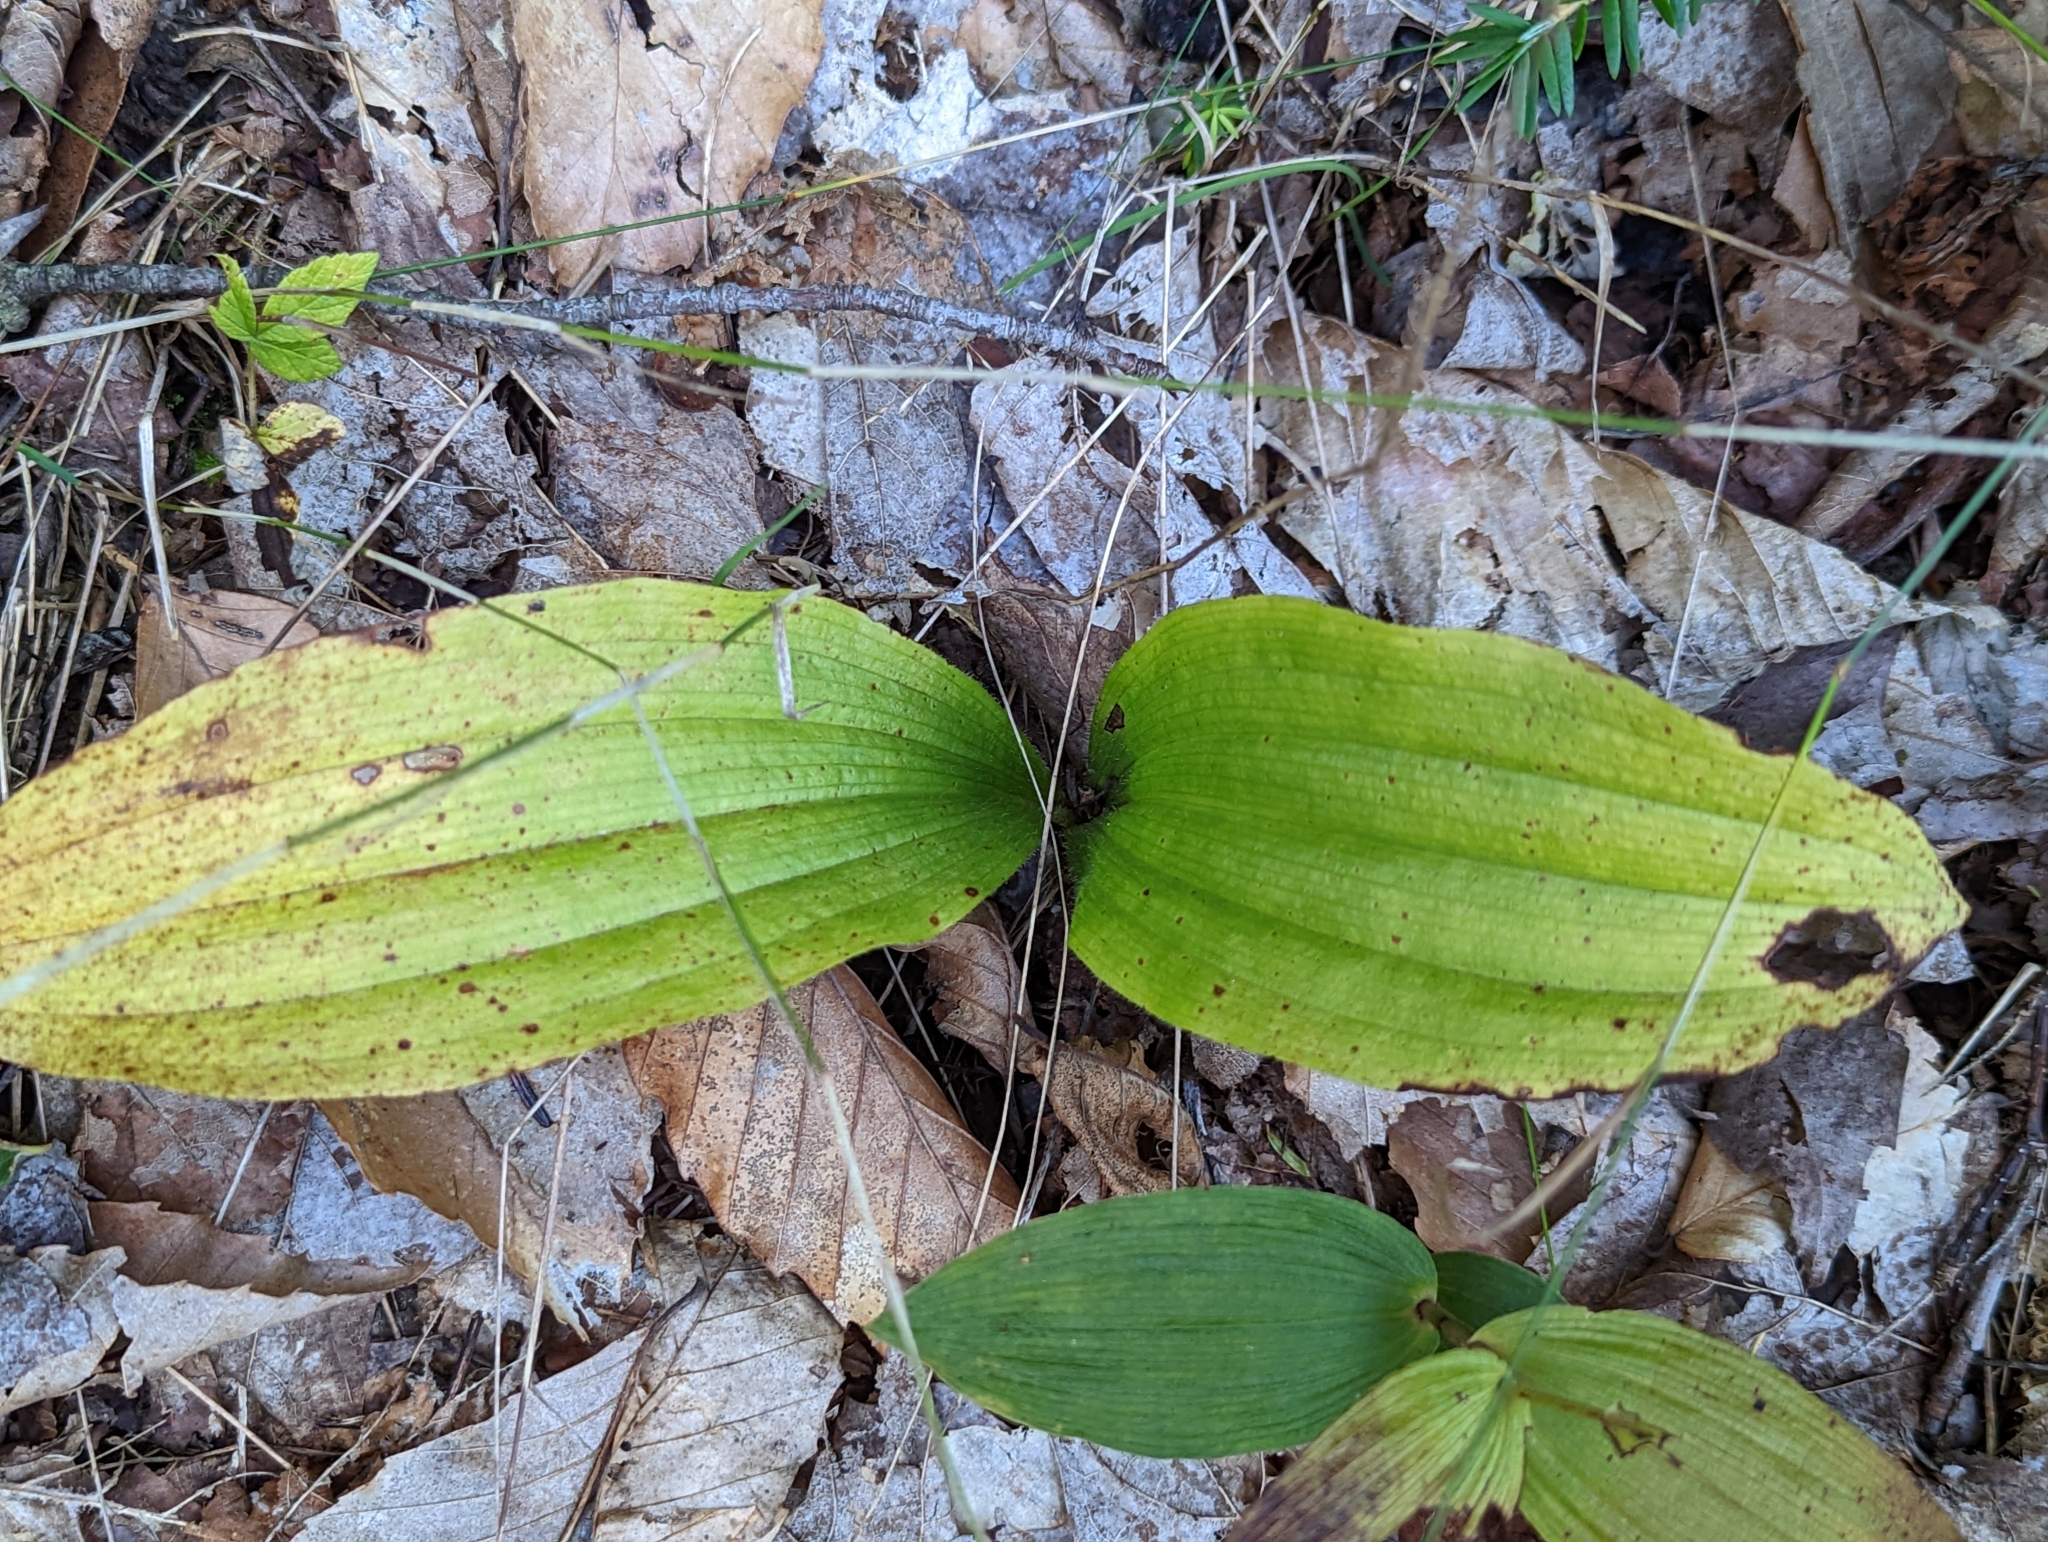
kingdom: Plantae
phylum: Tracheophyta
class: Liliopsida
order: Asparagales
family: Orchidaceae
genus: Cypripedium
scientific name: Cypripedium acaule
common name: Pink lady's-slipper
